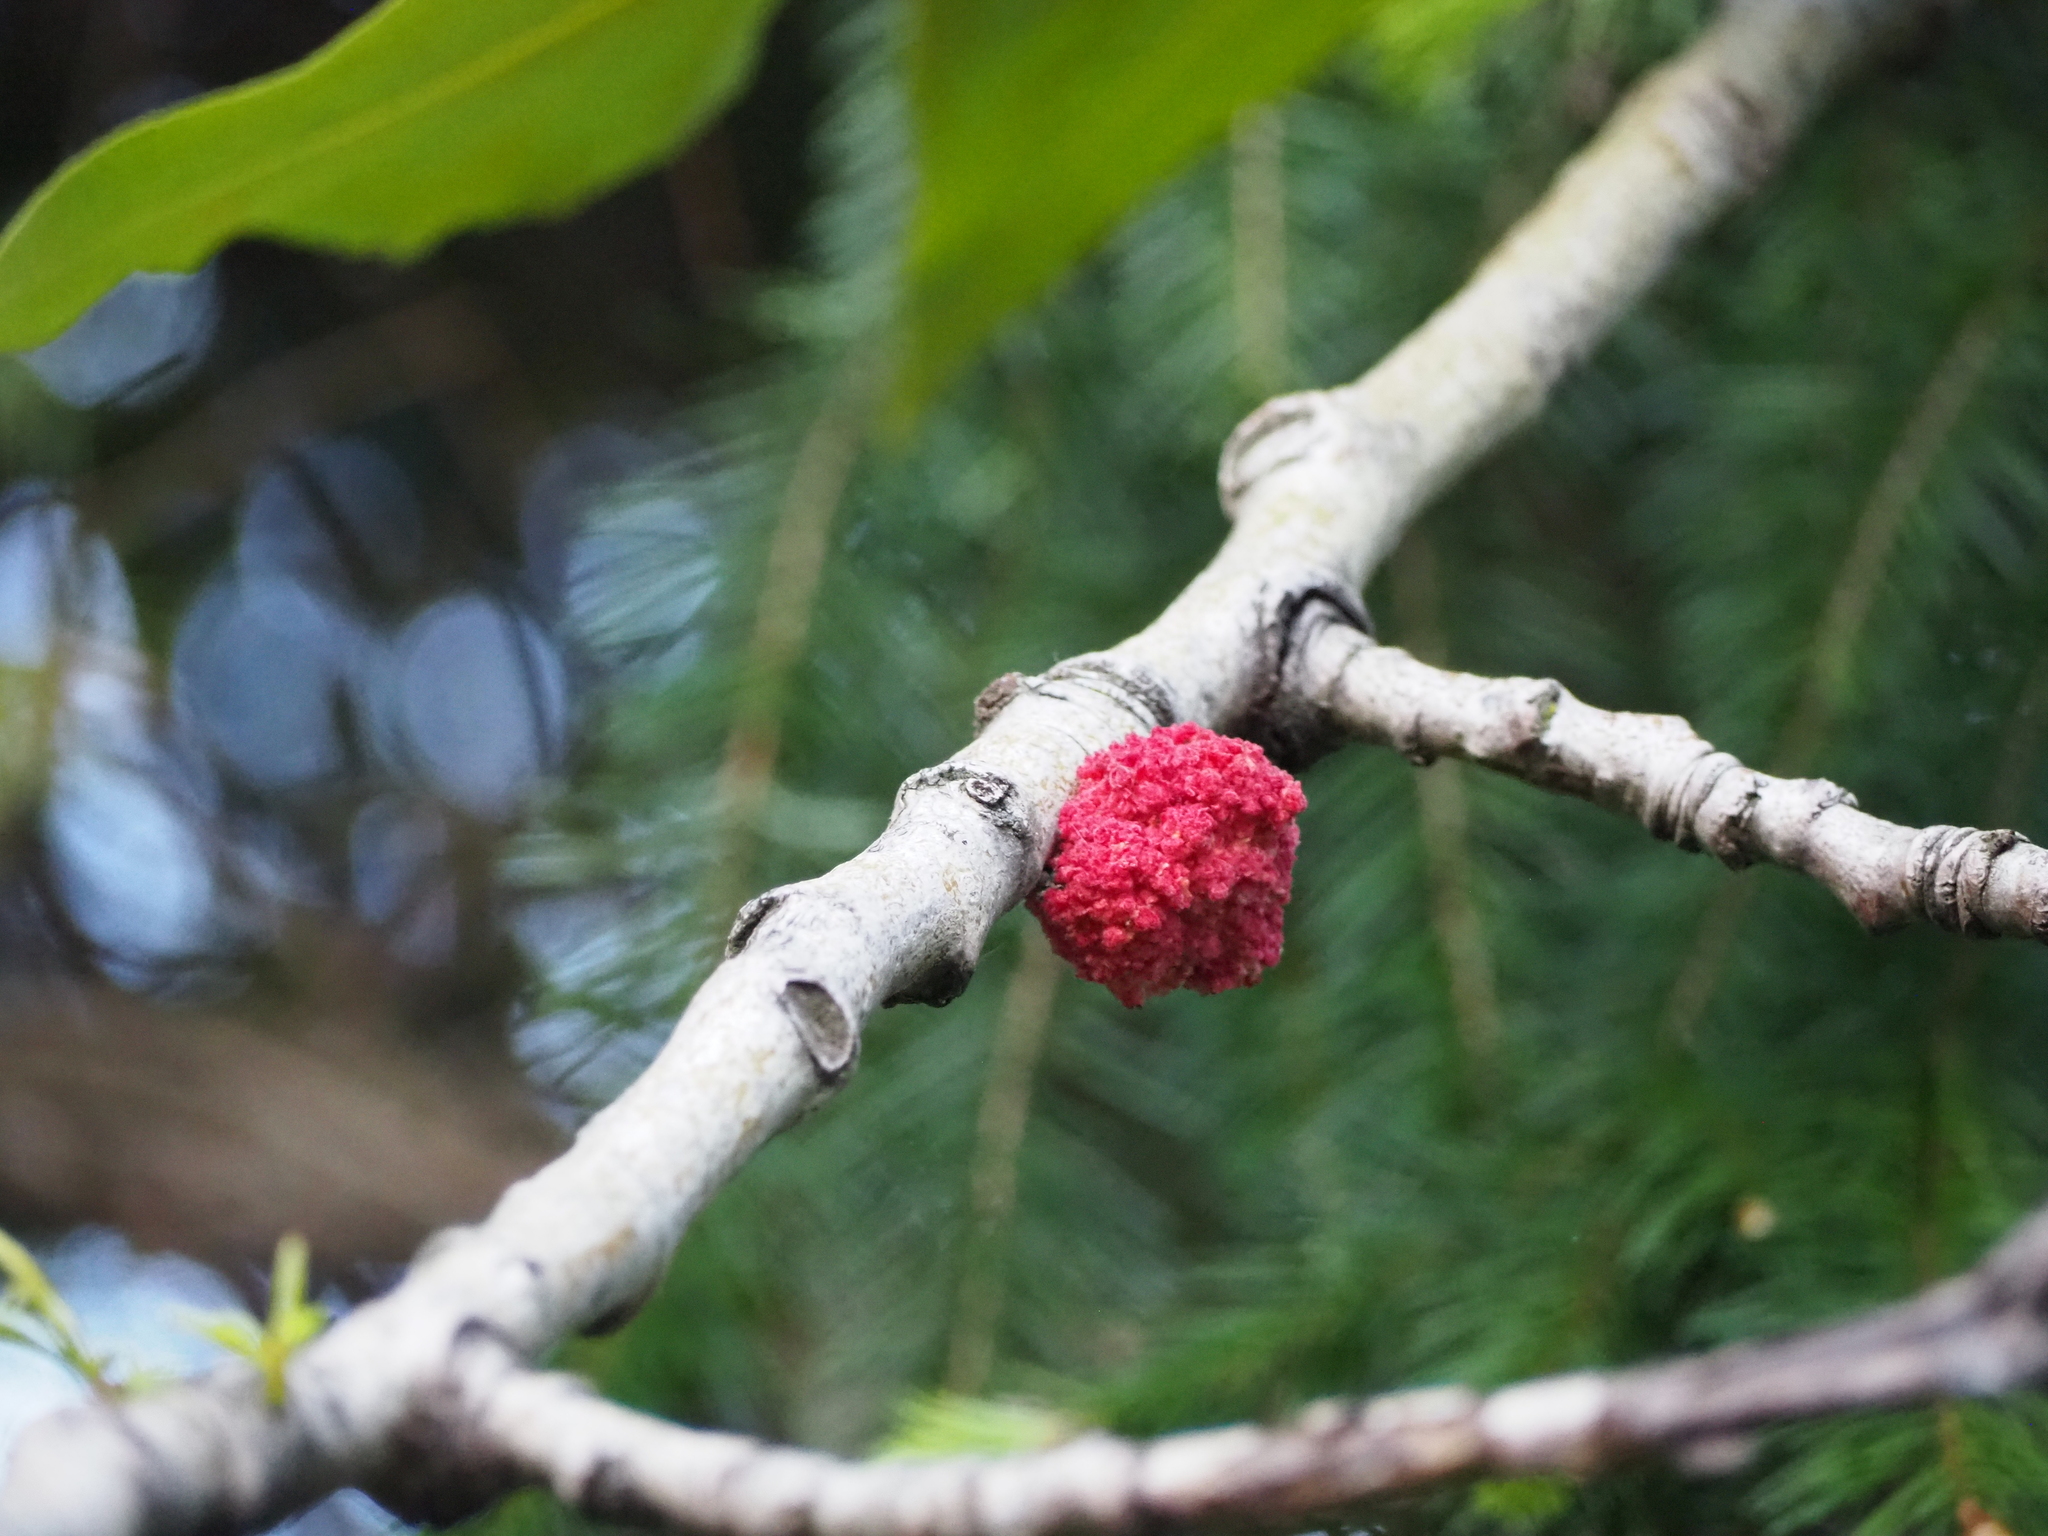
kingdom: Animalia
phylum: Arthropoda
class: Arachnida
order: Trombidiformes
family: Eriophyidae
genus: Aceria
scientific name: Aceria
